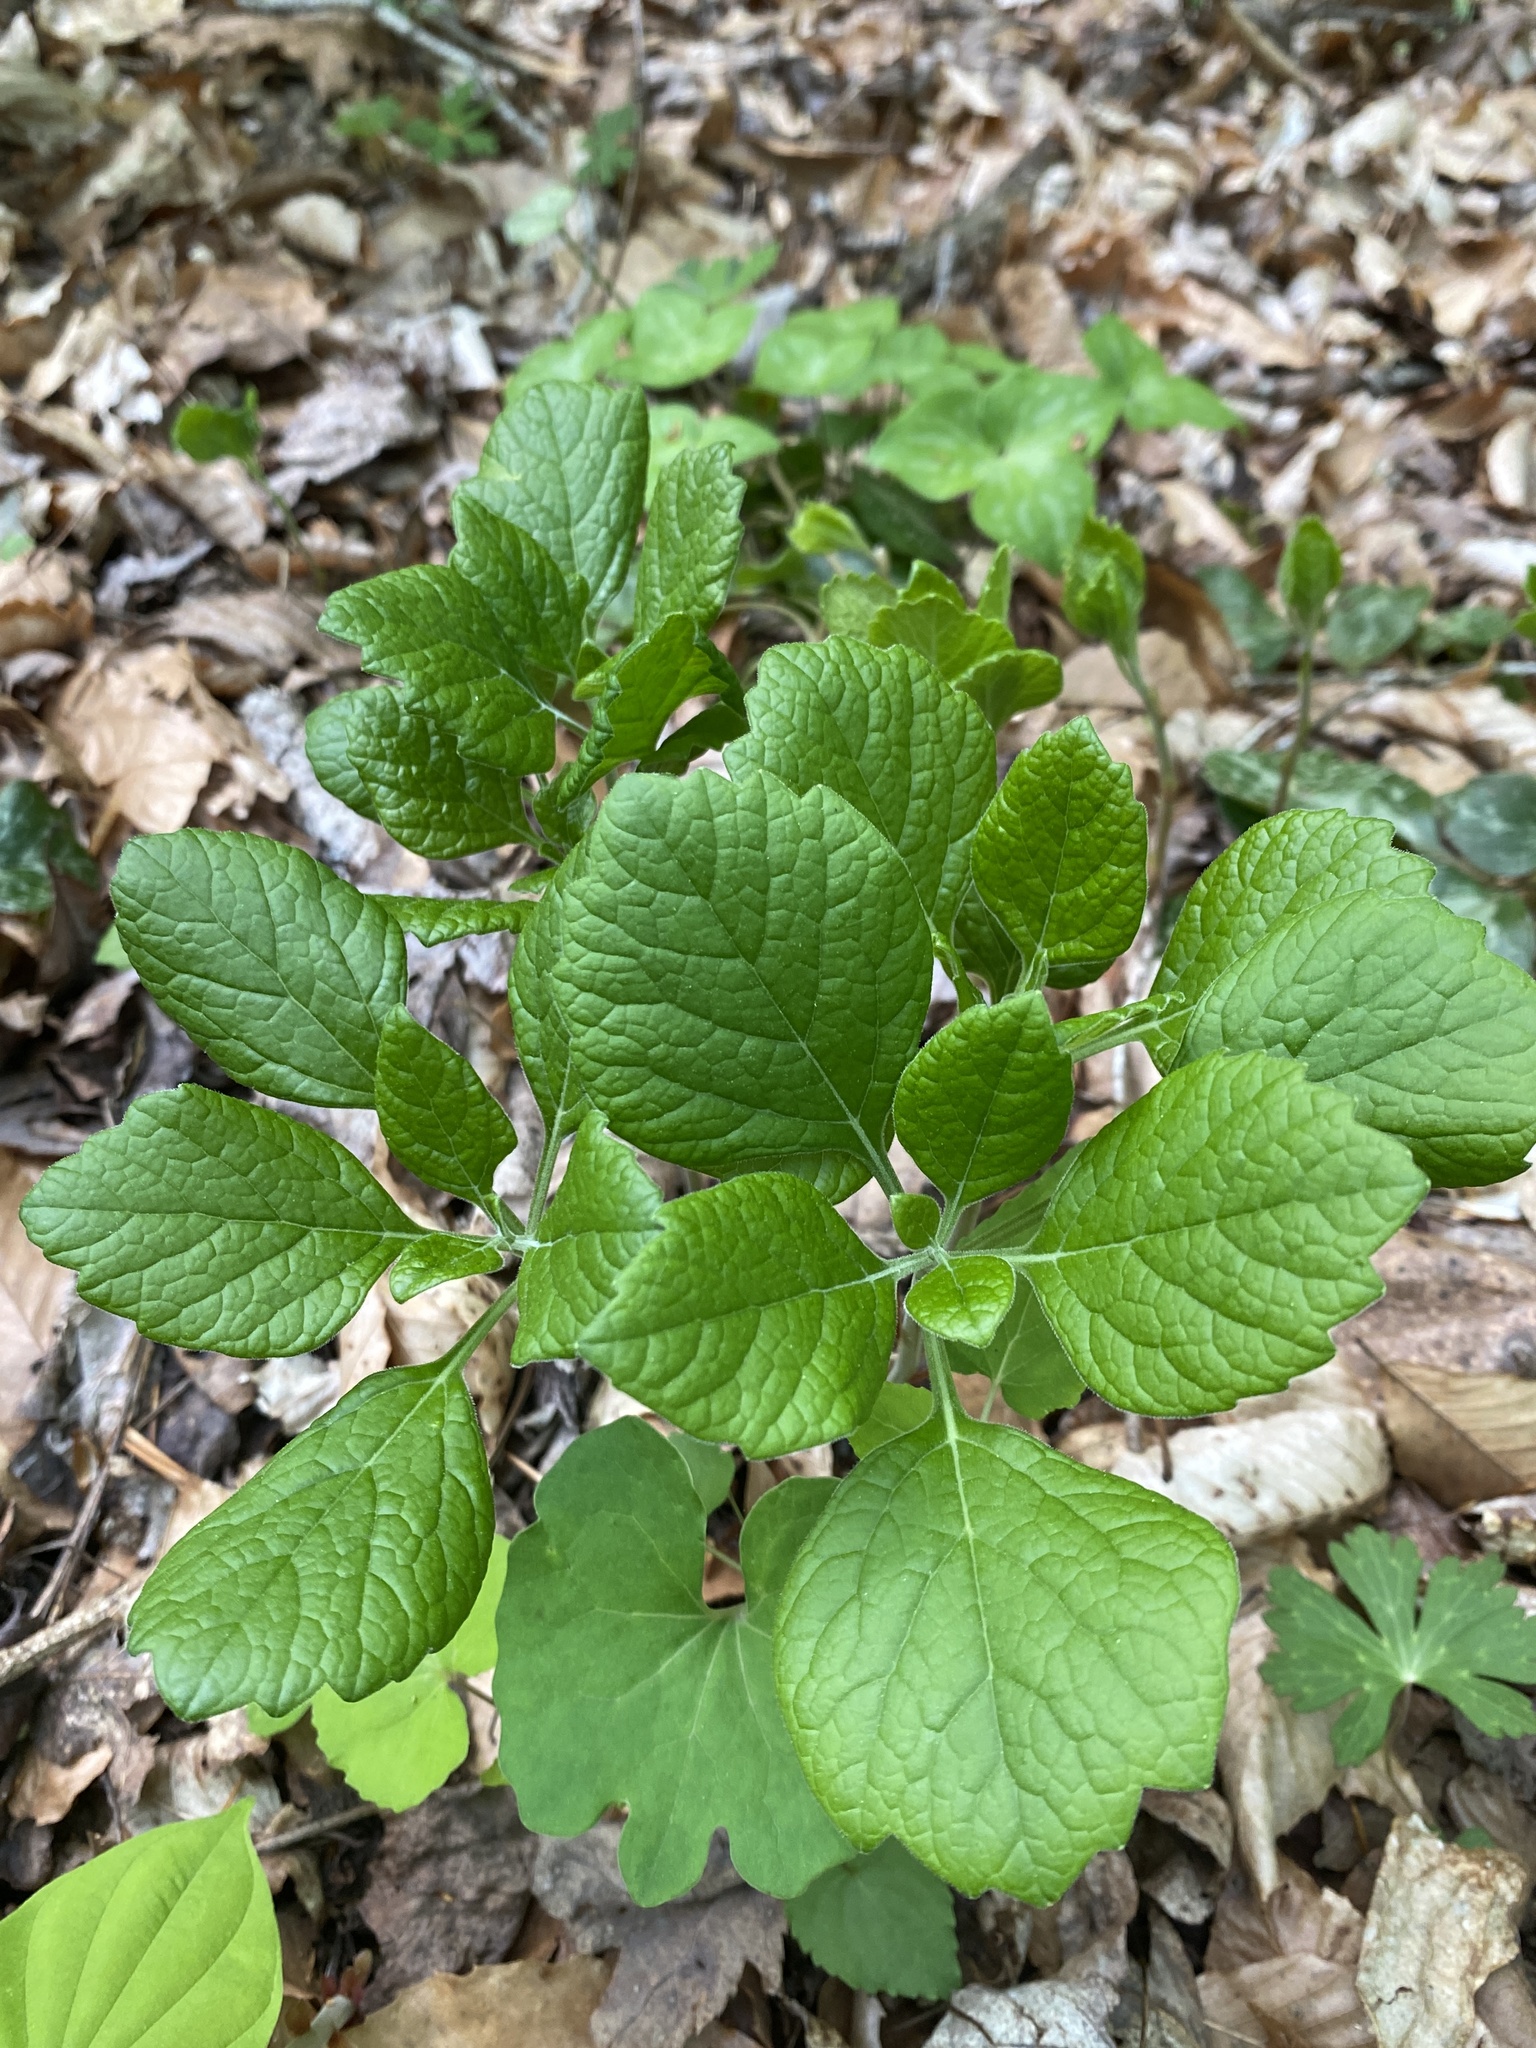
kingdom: Plantae
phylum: Tracheophyta
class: Magnoliopsida
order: Buxales
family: Buxaceae
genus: Pachysandra
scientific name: Pachysandra procumbens
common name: Mountain-spurge
